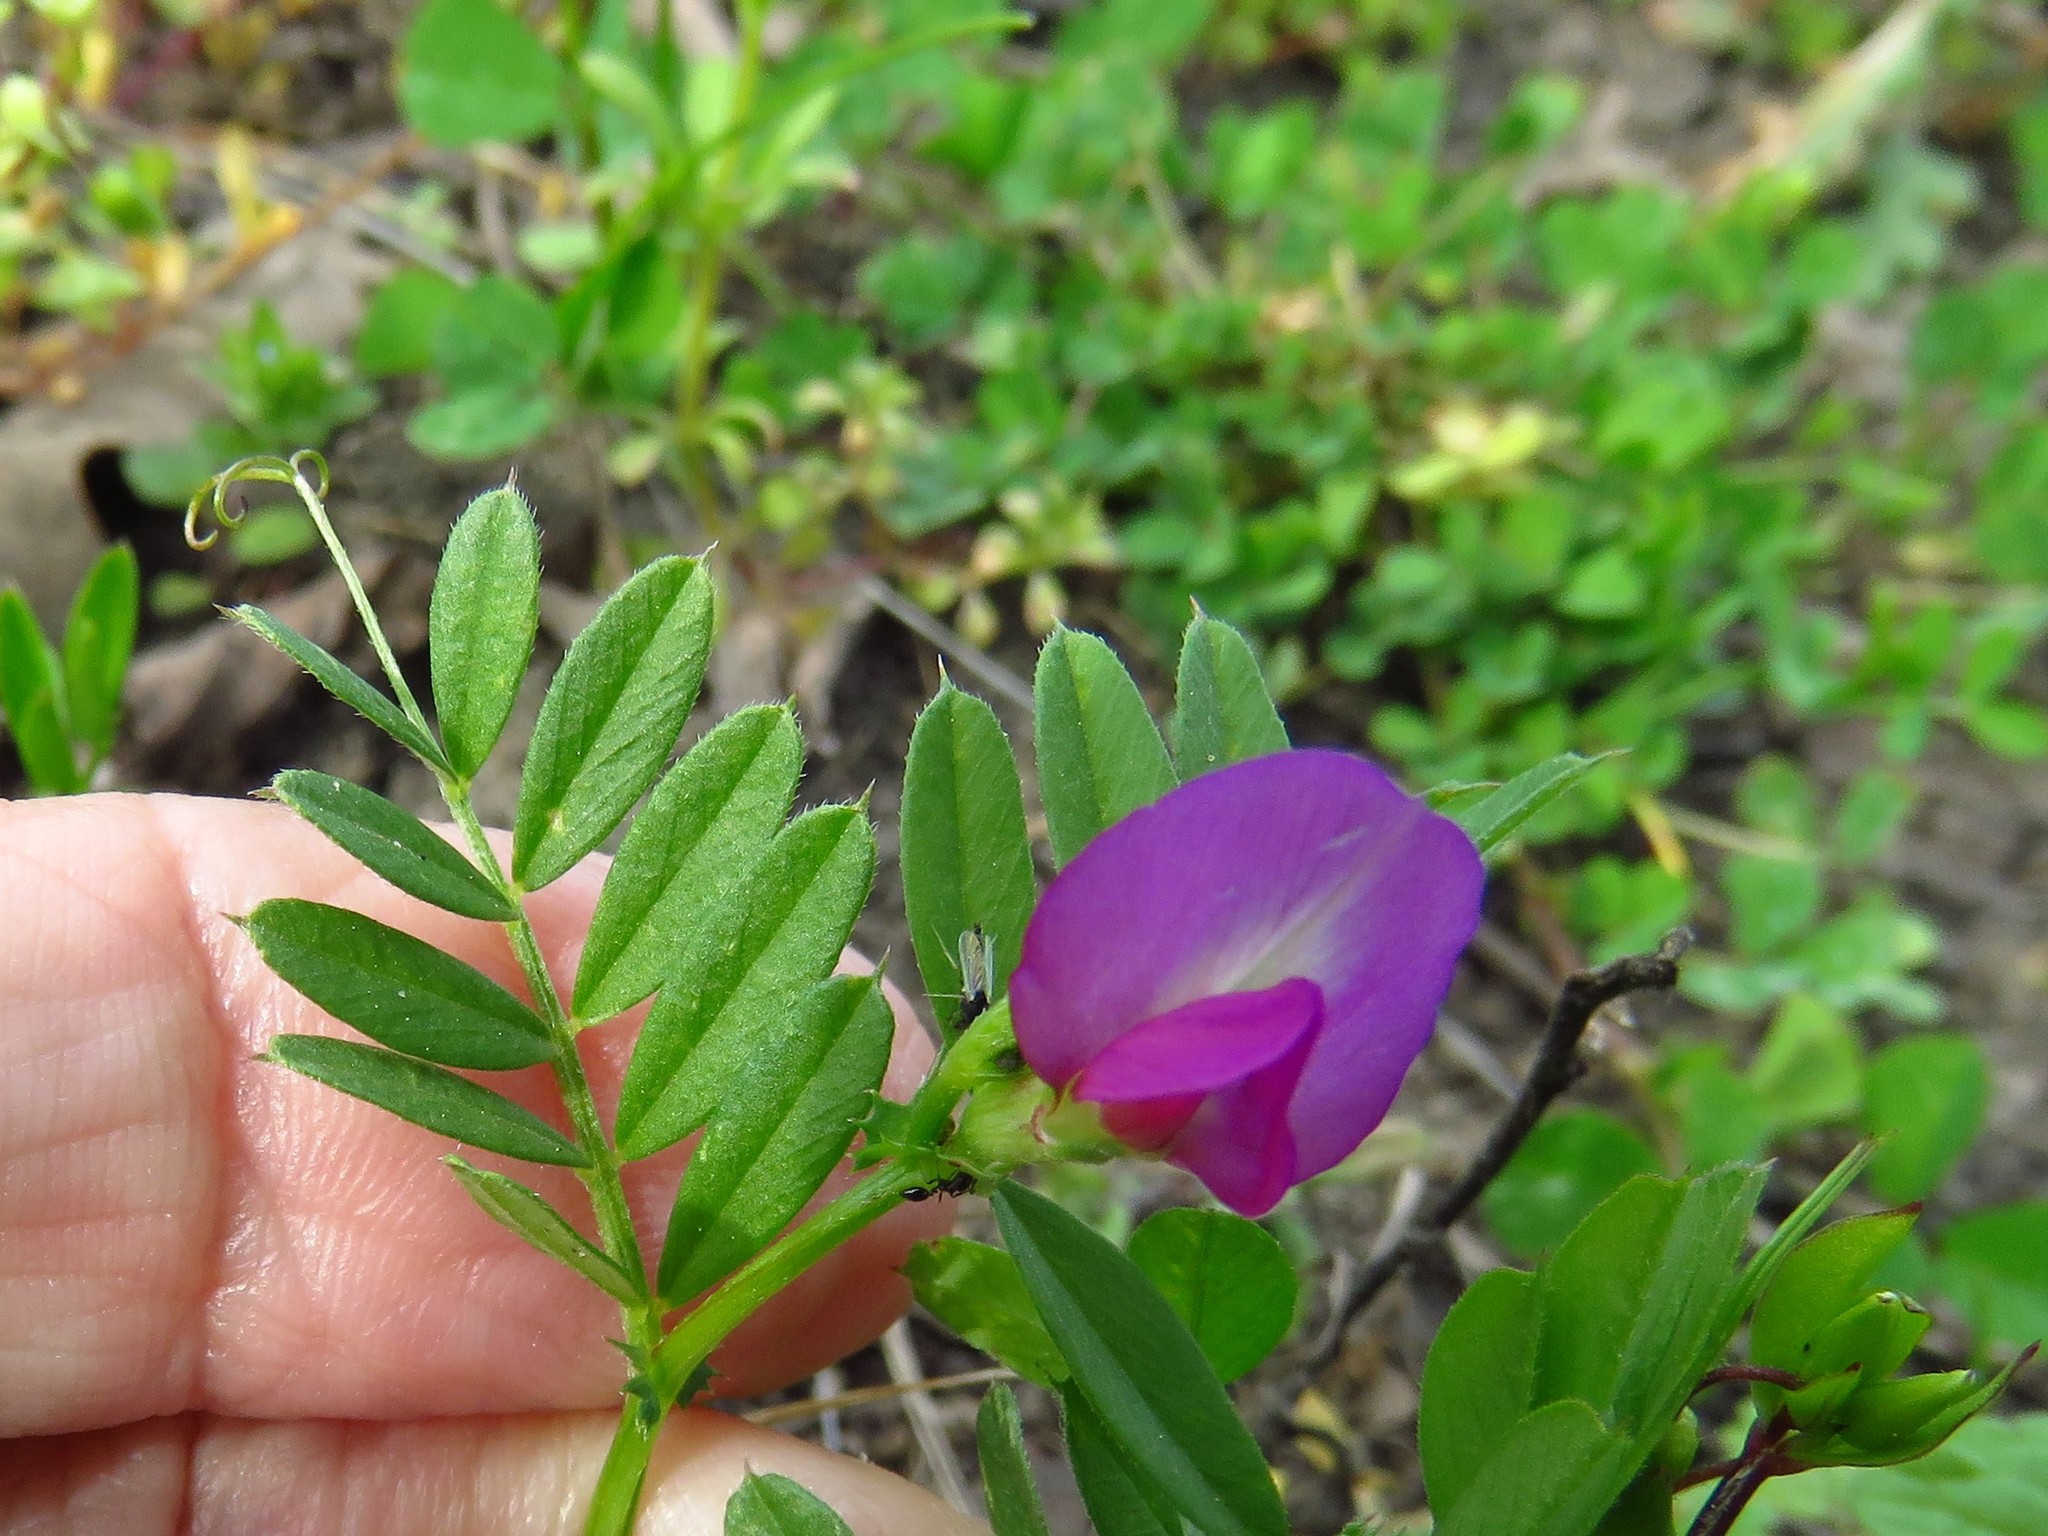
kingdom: Plantae
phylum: Tracheophyta
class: Magnoliopsida
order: Fabales
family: Fabaceae
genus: Vicia
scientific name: Vicia sativa
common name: Garden vetch
